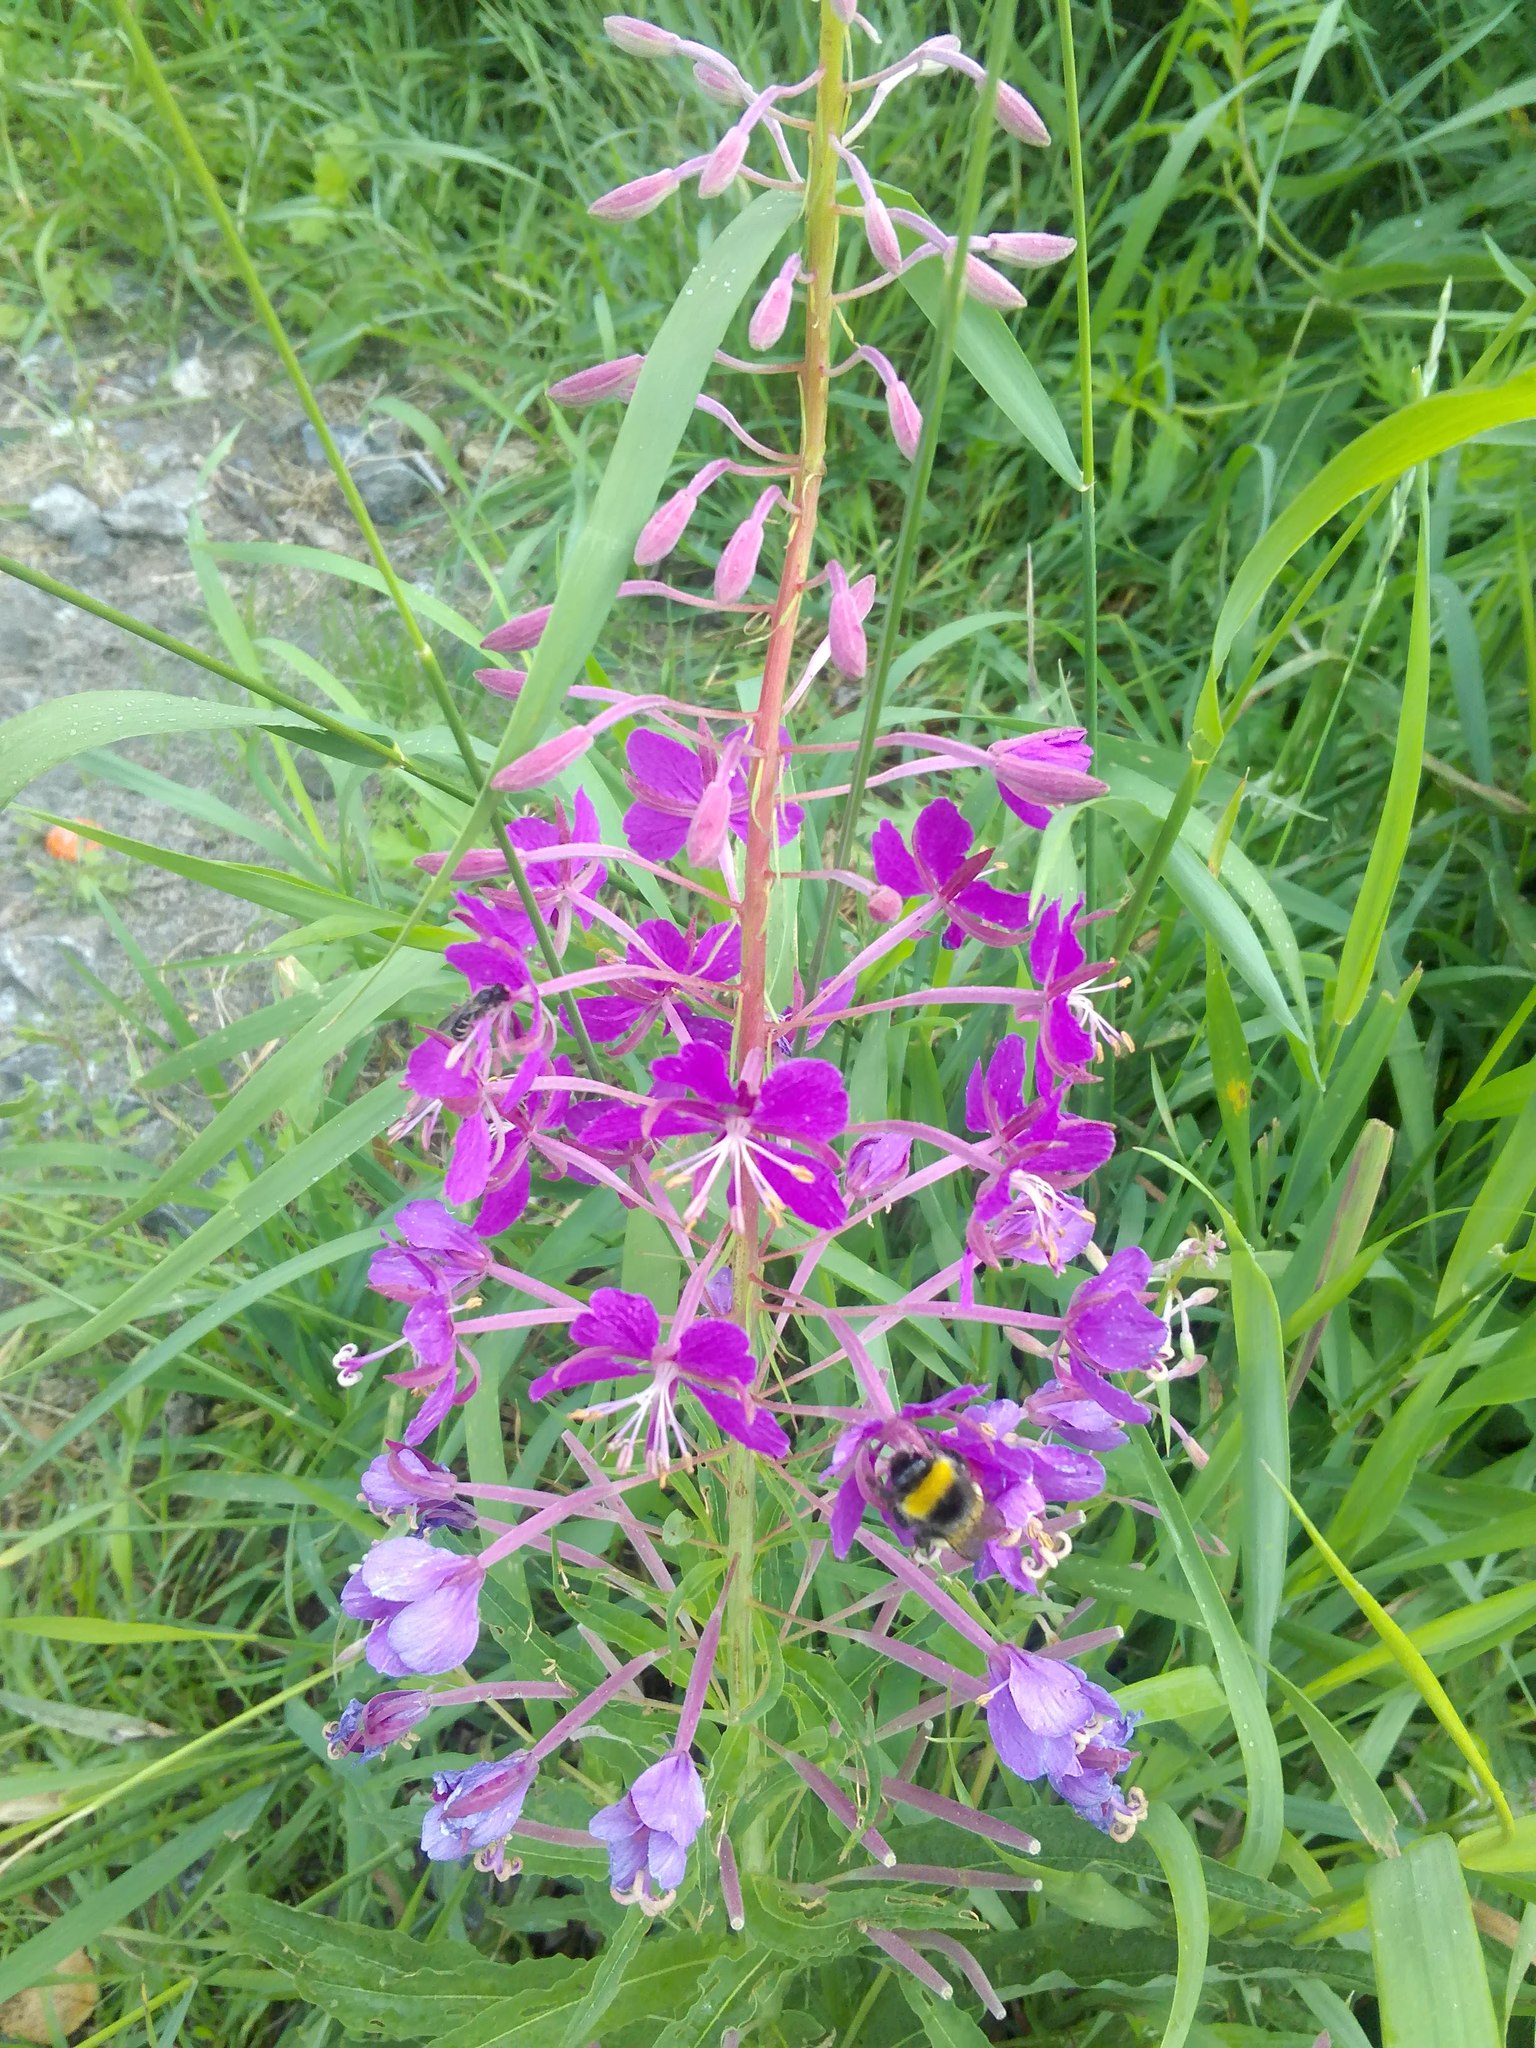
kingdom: Plantae
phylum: Tracheophyta
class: Magnoliopsida
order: Myrtales
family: Onagraceae
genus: Chamaenerion
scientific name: Chamaenerion angustifolium
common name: Fireweed
